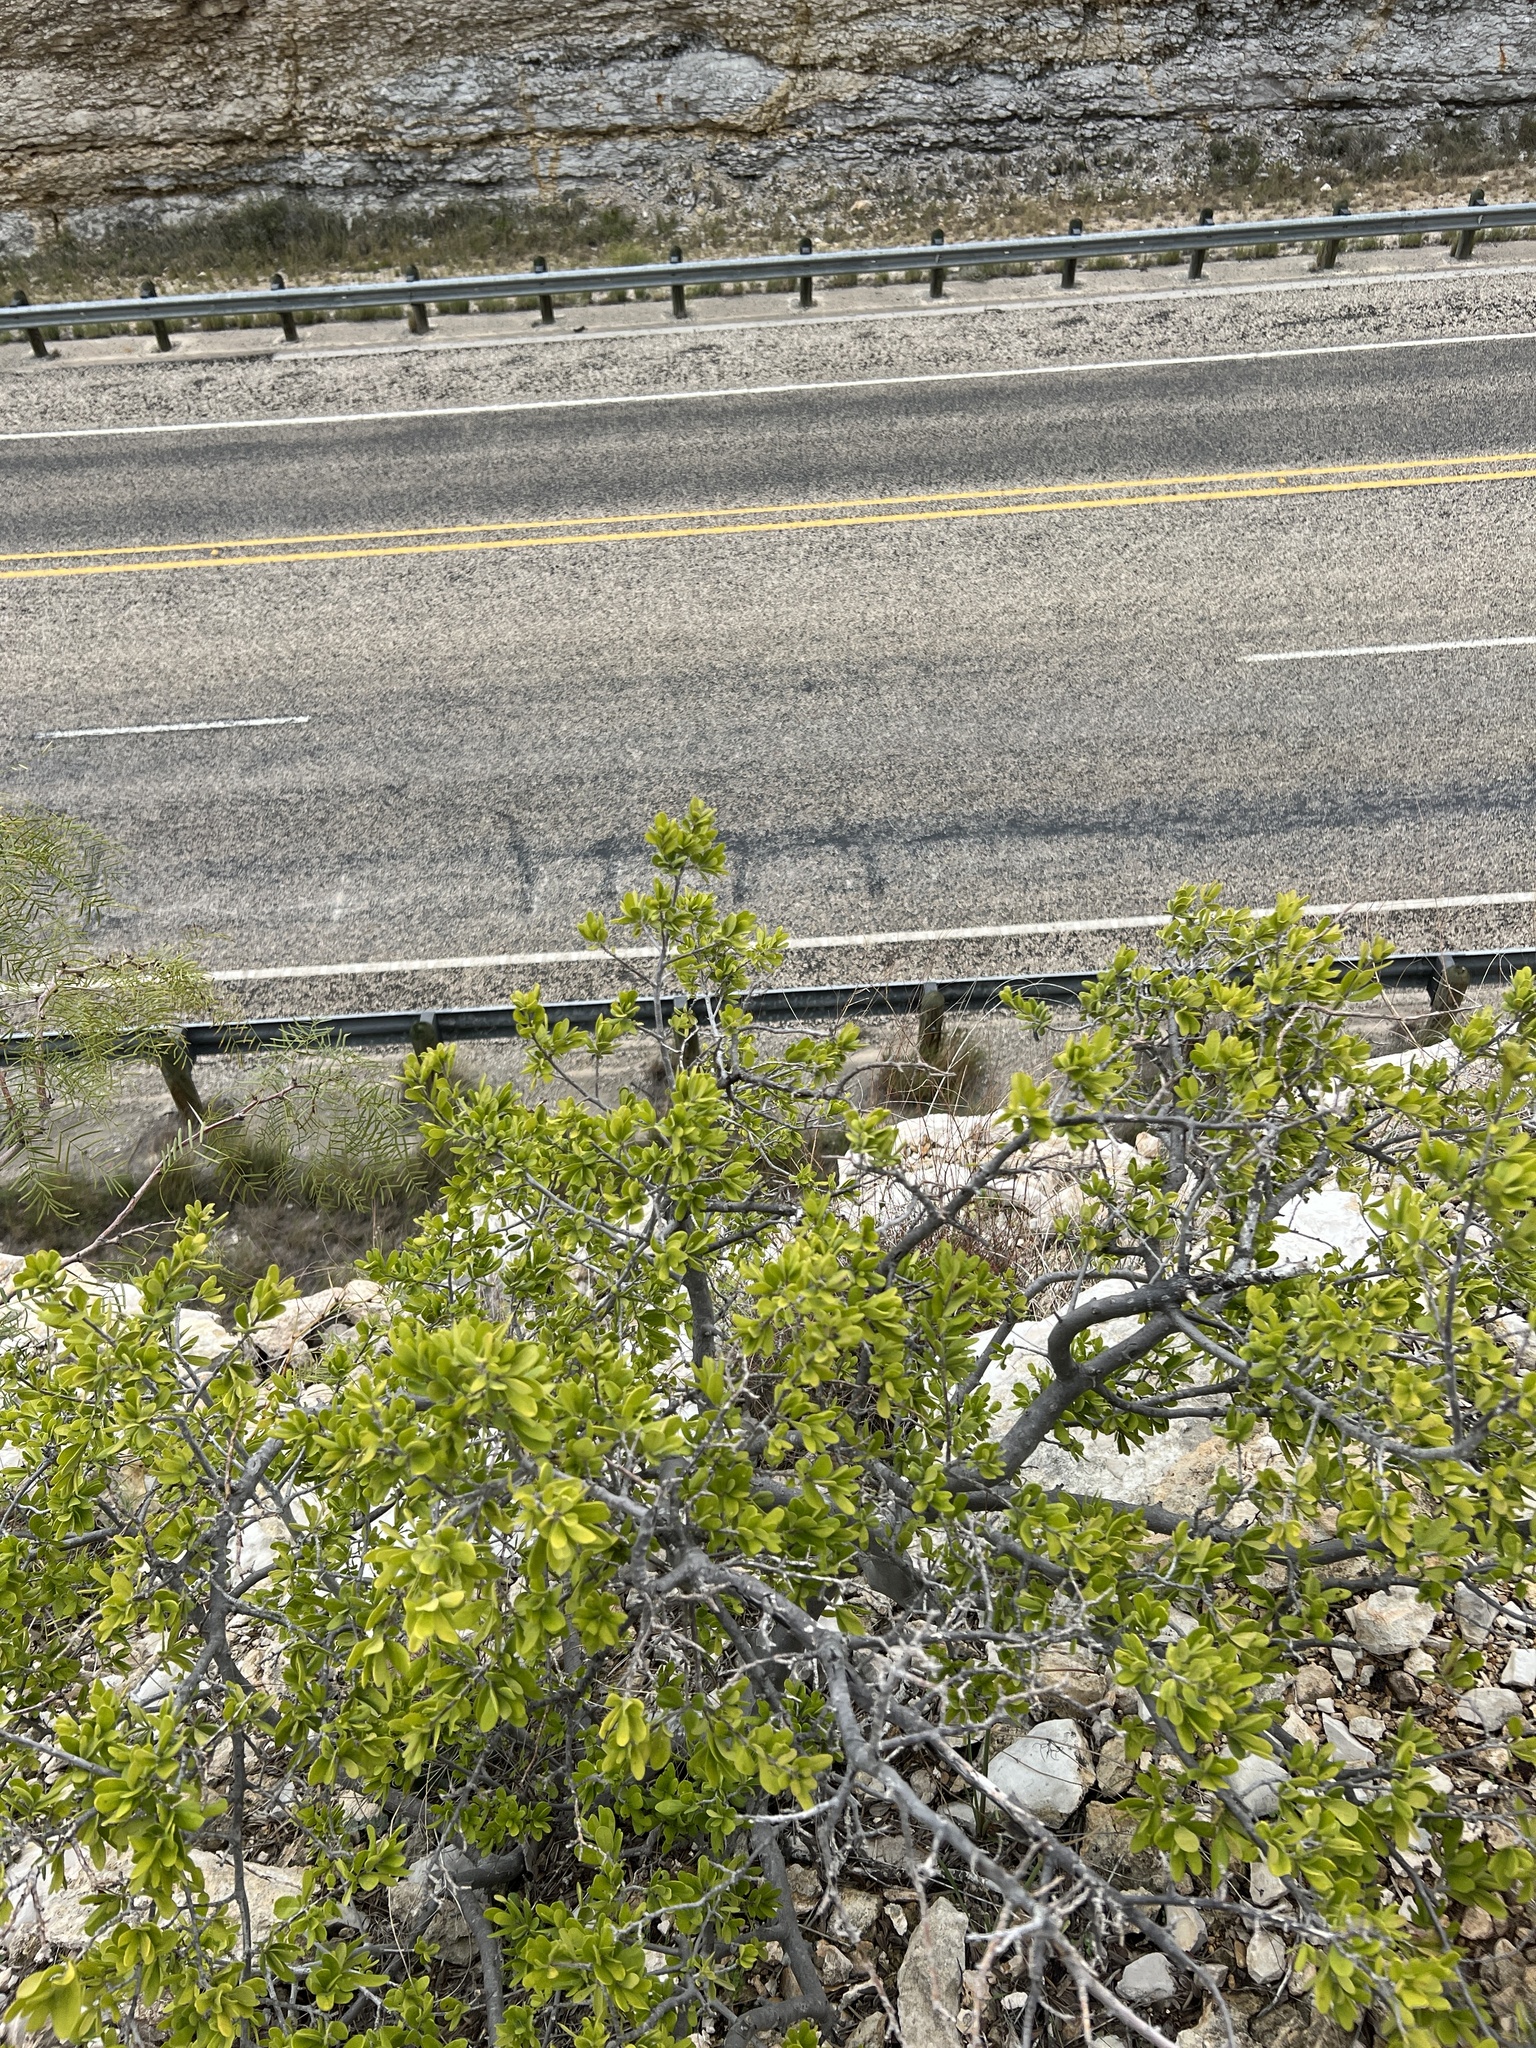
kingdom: Plantae
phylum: Tracheophyta
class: Magnoliopsida
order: Ericales
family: Ebenaceae
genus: Diospyros
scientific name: Diospyros texana
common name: Texas persimmon
